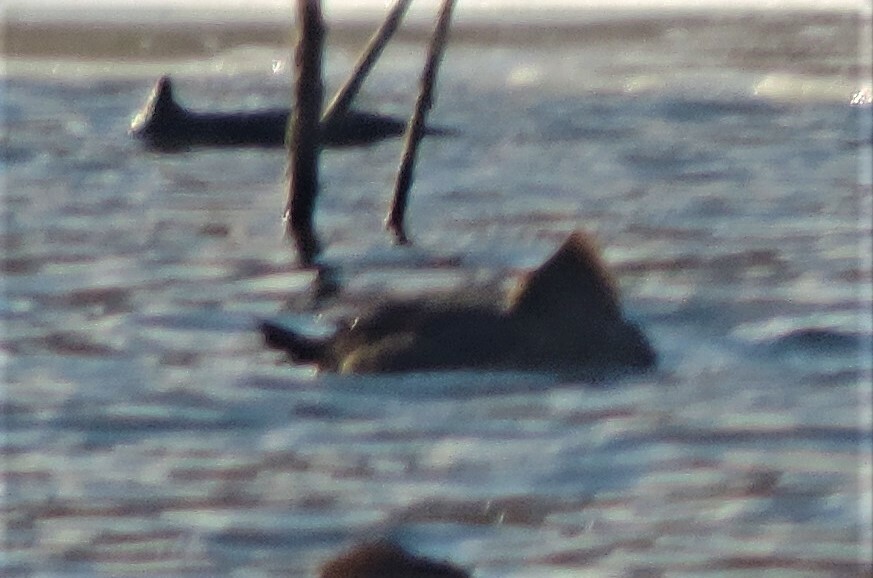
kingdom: Animalia
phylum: Chordata
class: Aves
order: Anseriformes
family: Anatidae
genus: Lophodytes
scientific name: Lophodytes cucullatus
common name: Hooded merganser
